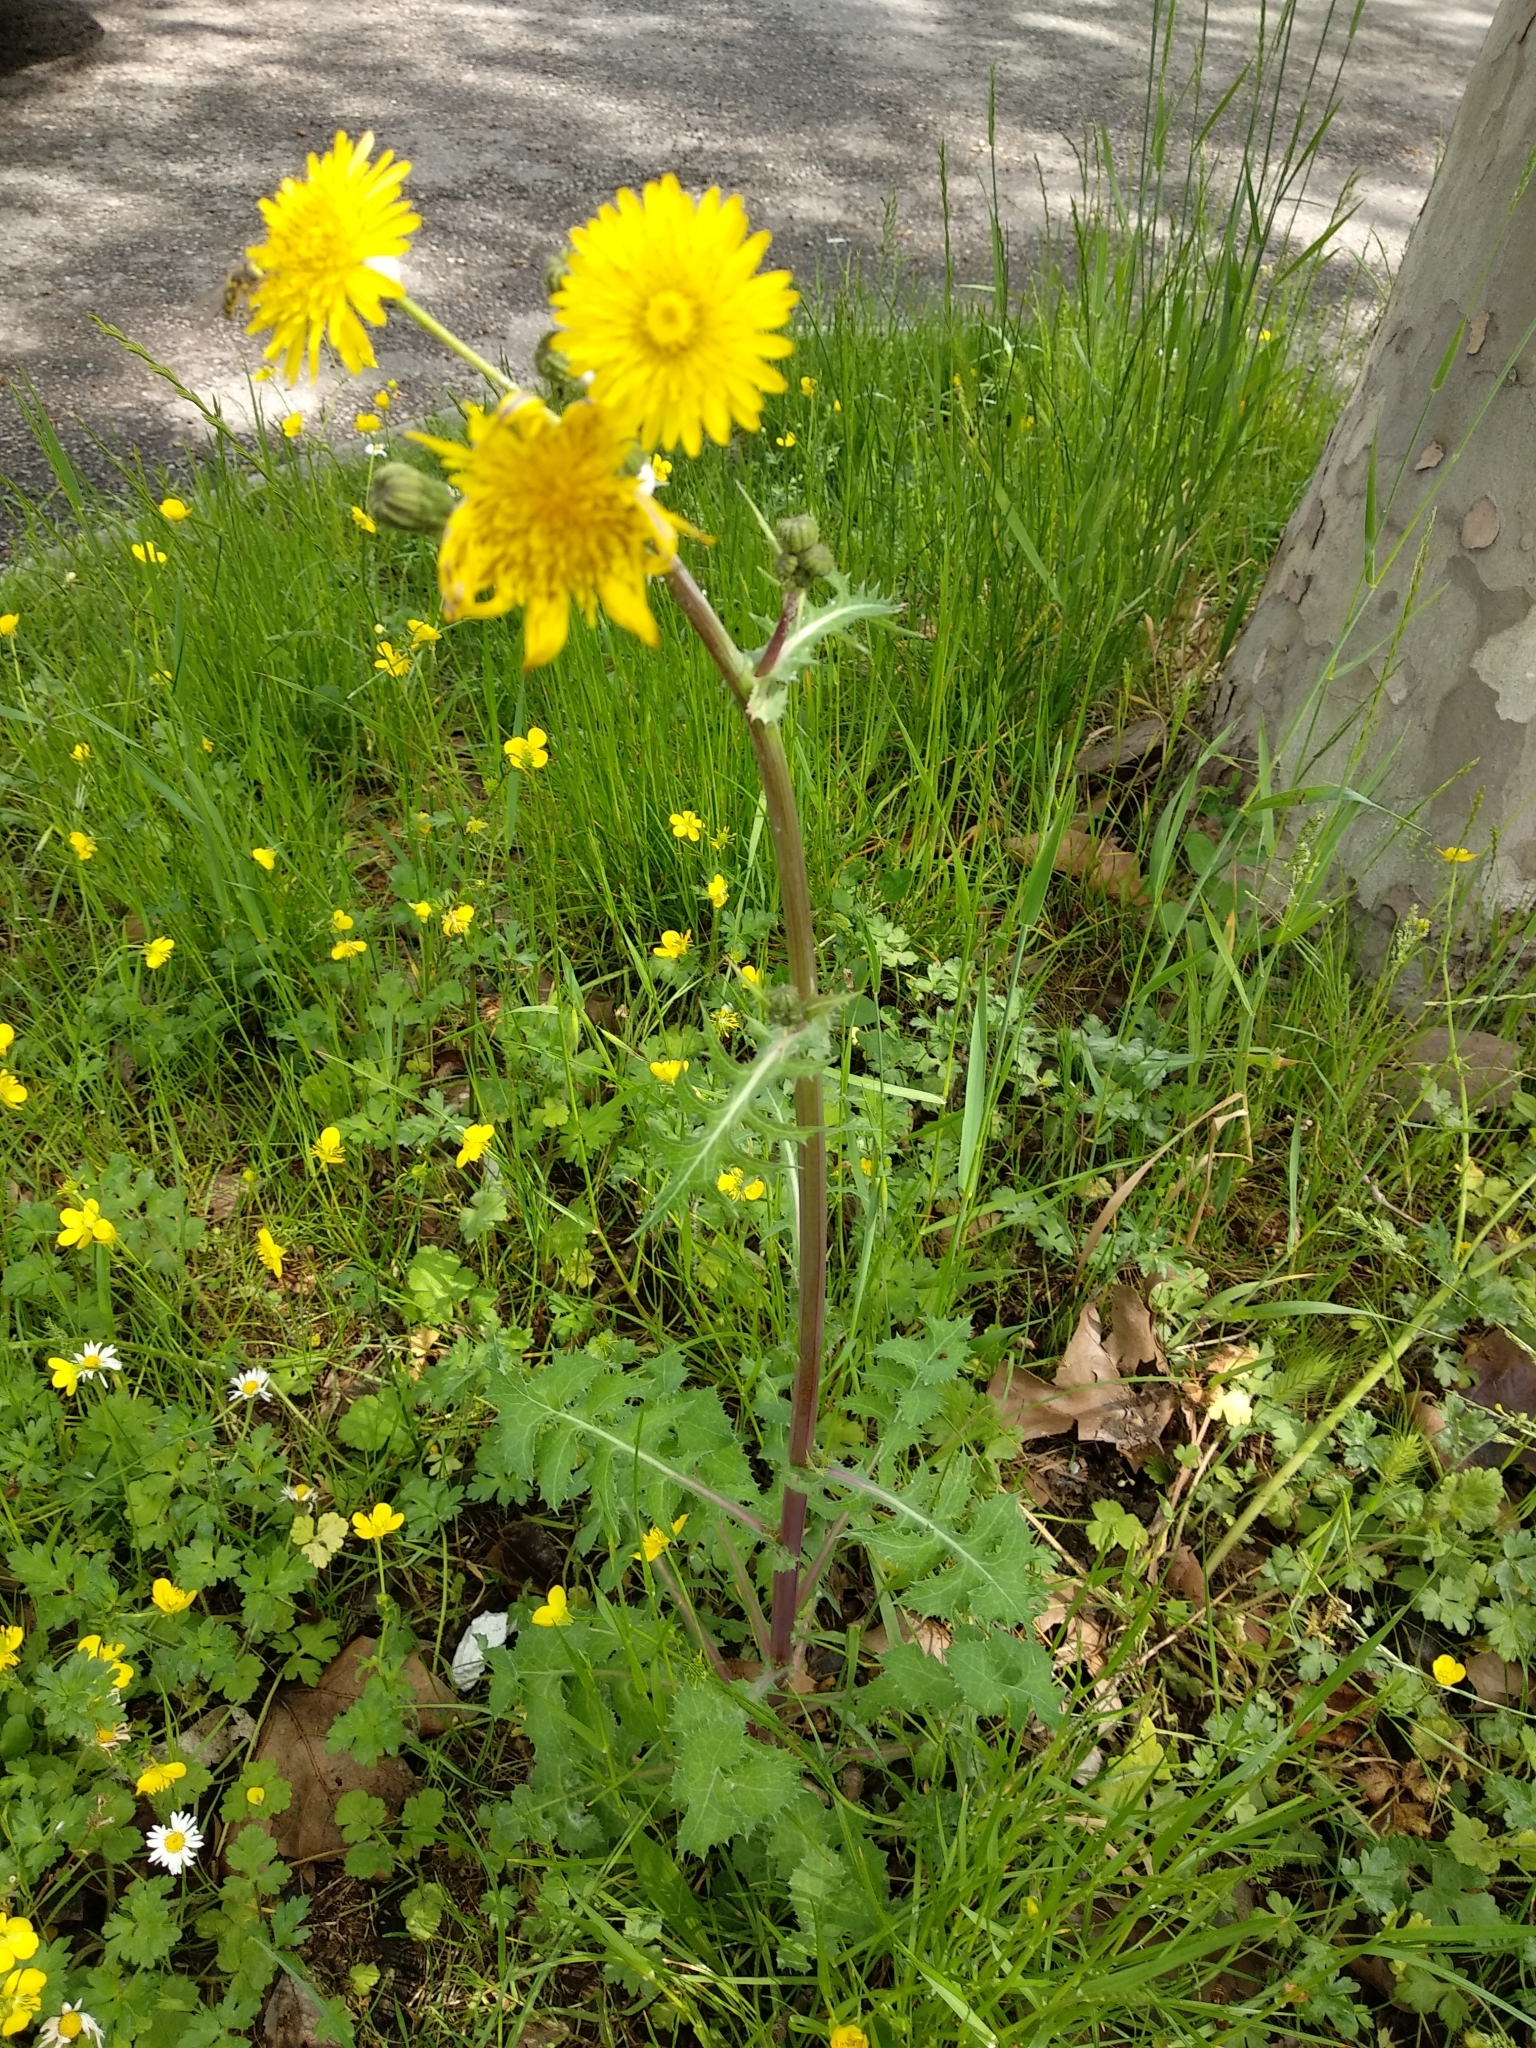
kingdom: Plantae
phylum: Tracheophyta
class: Magnoliopsida
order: Asterales
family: Asteraceae
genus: Sonchus
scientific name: Sonchus asper
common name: Prickly sow-thistle
